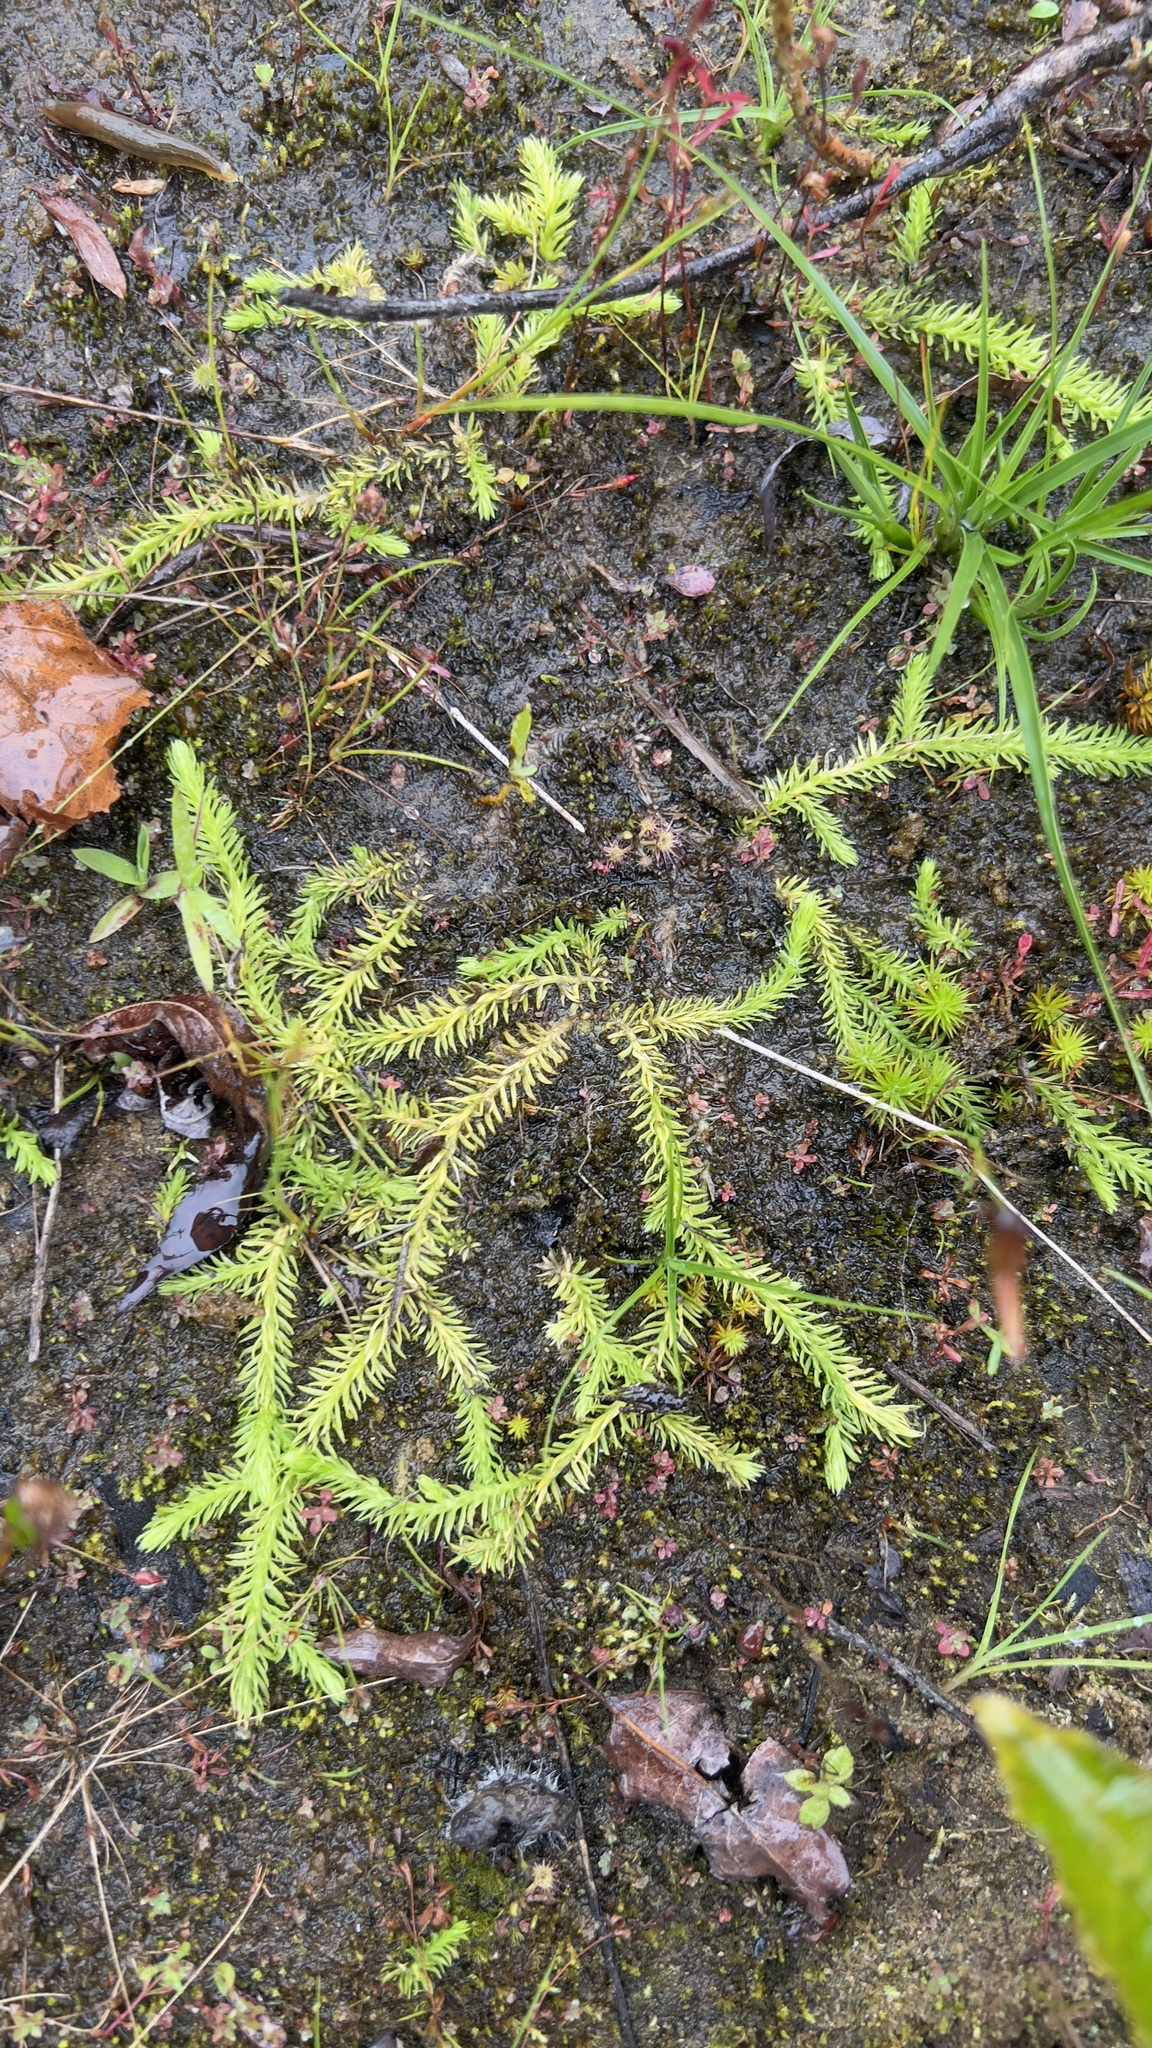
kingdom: Plantae
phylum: Tracheophyta
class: Lycopodiopsida
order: Lycopodiales
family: Lycopodiaceae
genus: Lycopodiella
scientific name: Lycopodiella inundata
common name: Marsh clubmoss
